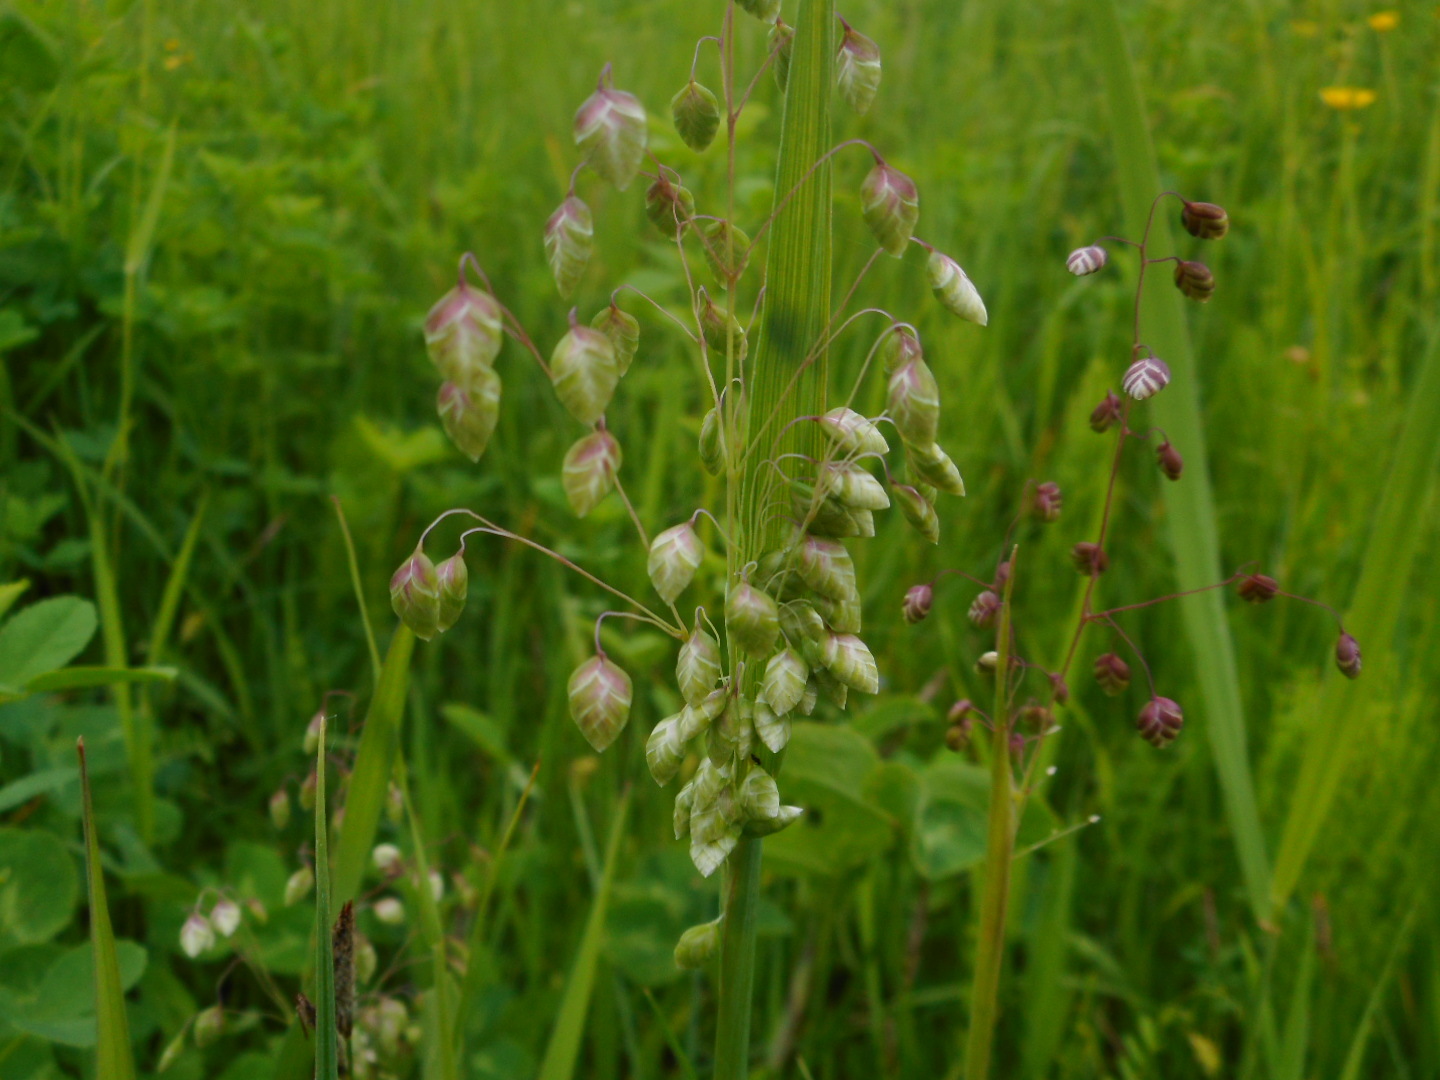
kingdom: Plantae
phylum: Tracheophyta
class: Liliopsida
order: Poales
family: Poaceae
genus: Briza
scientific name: Briza media
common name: Quaking grass
